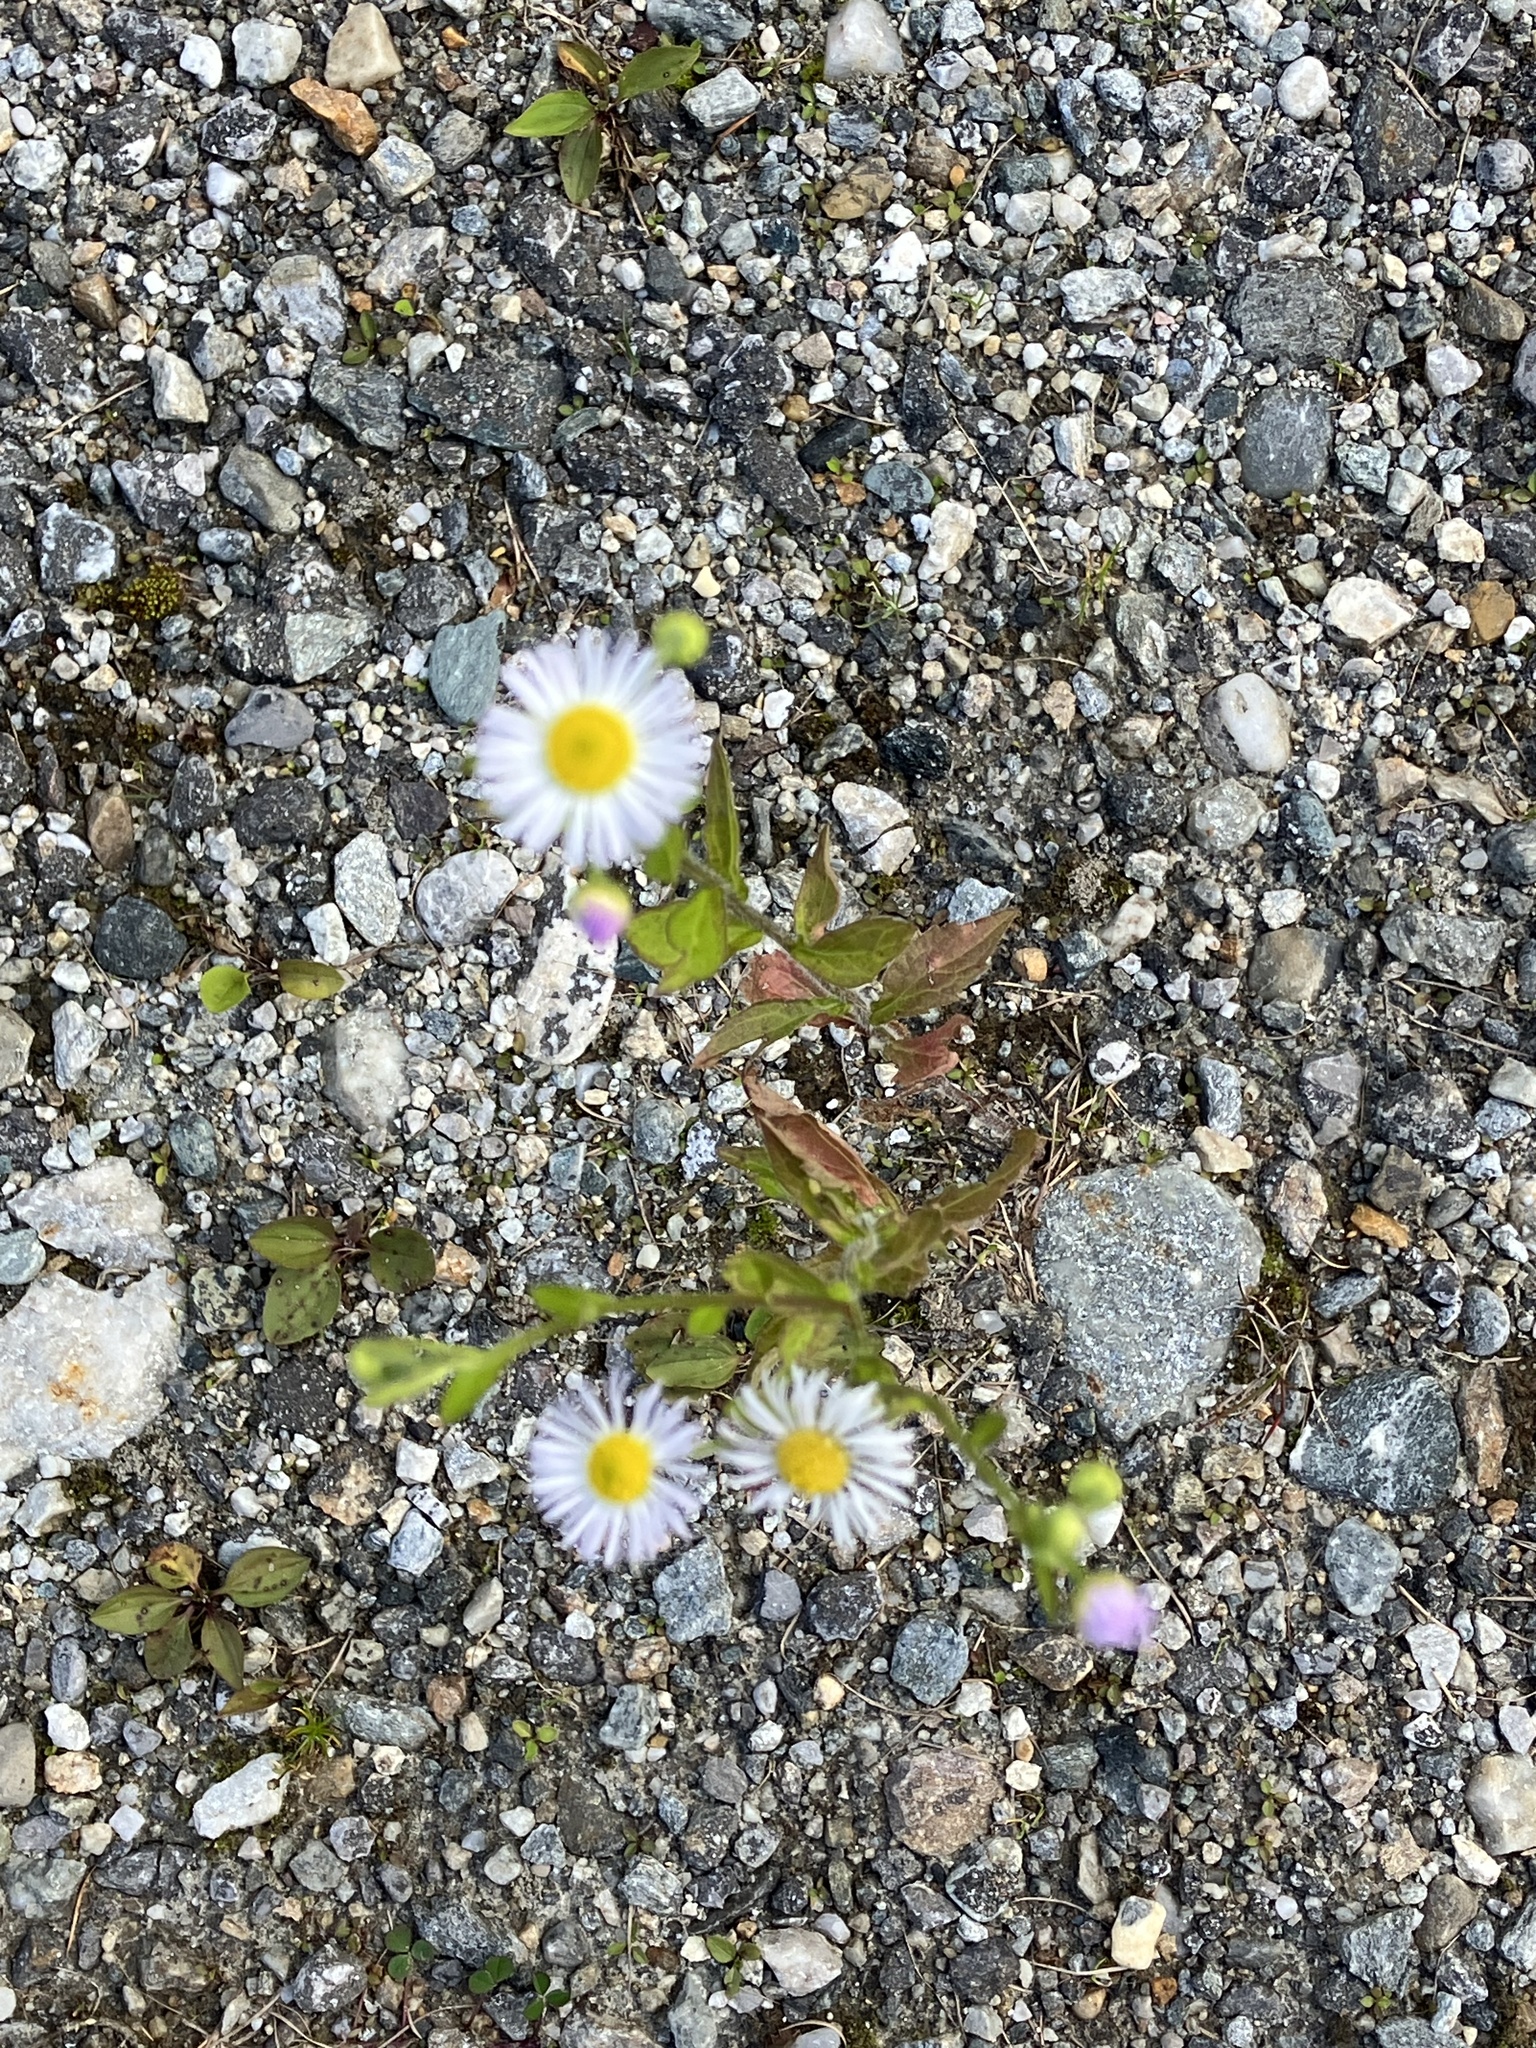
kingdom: Plantae
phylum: Tracheophyta
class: Magnoliopsida
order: Asterales
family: Asteraceae
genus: Erigeron
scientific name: Erigeron annuus
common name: Tall fleabane
